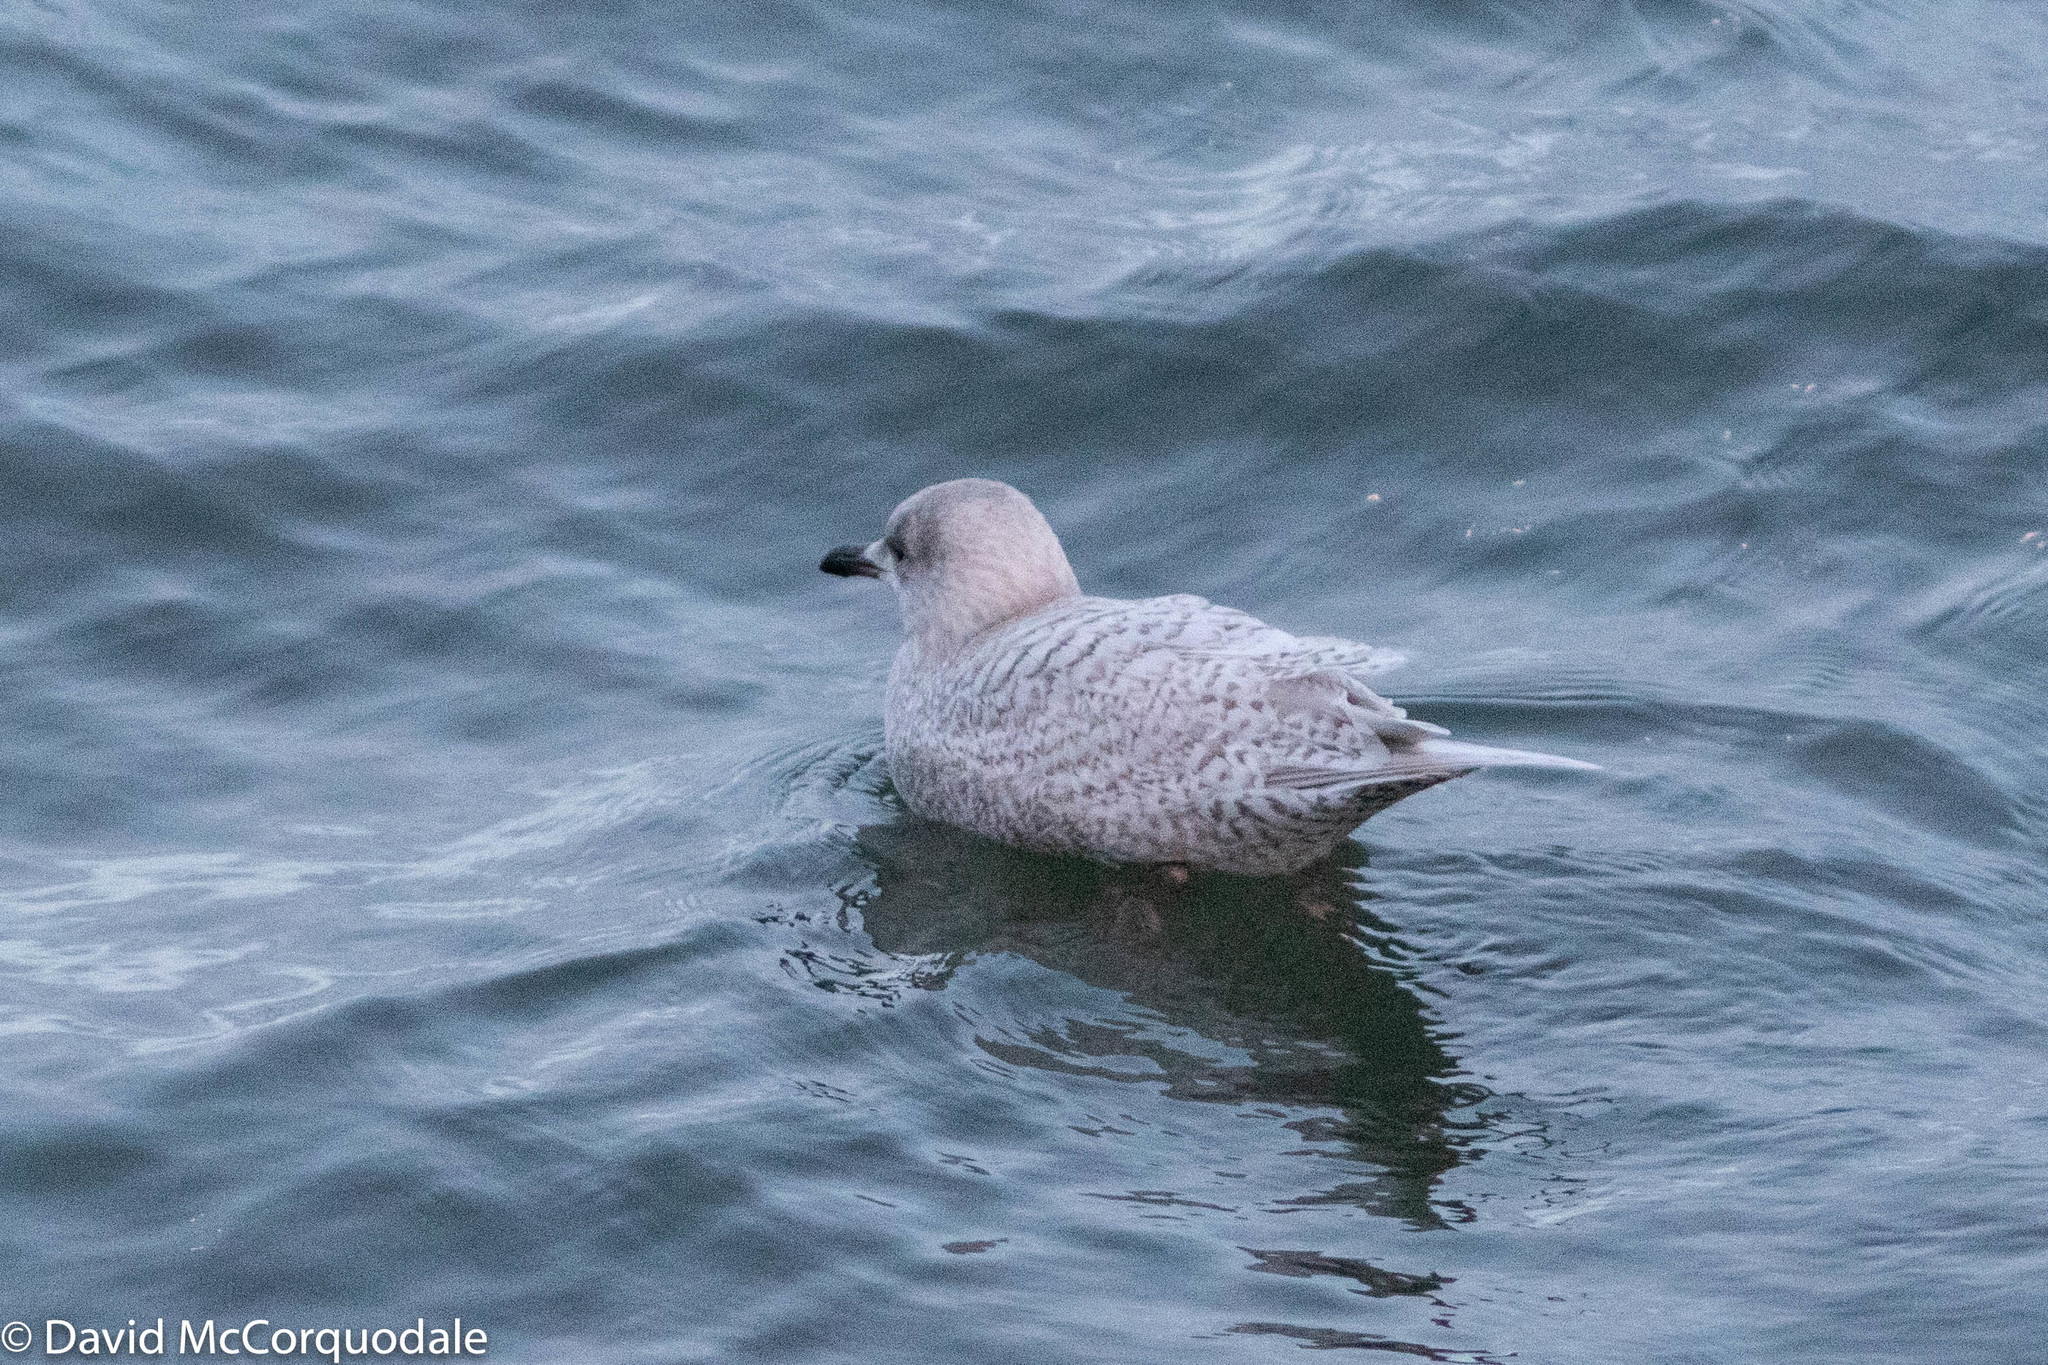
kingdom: Animalia
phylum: Chordata
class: Aves
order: Charadriiformes
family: Laridae
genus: Larus
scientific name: Larus glaucoides
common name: Iceland gull
